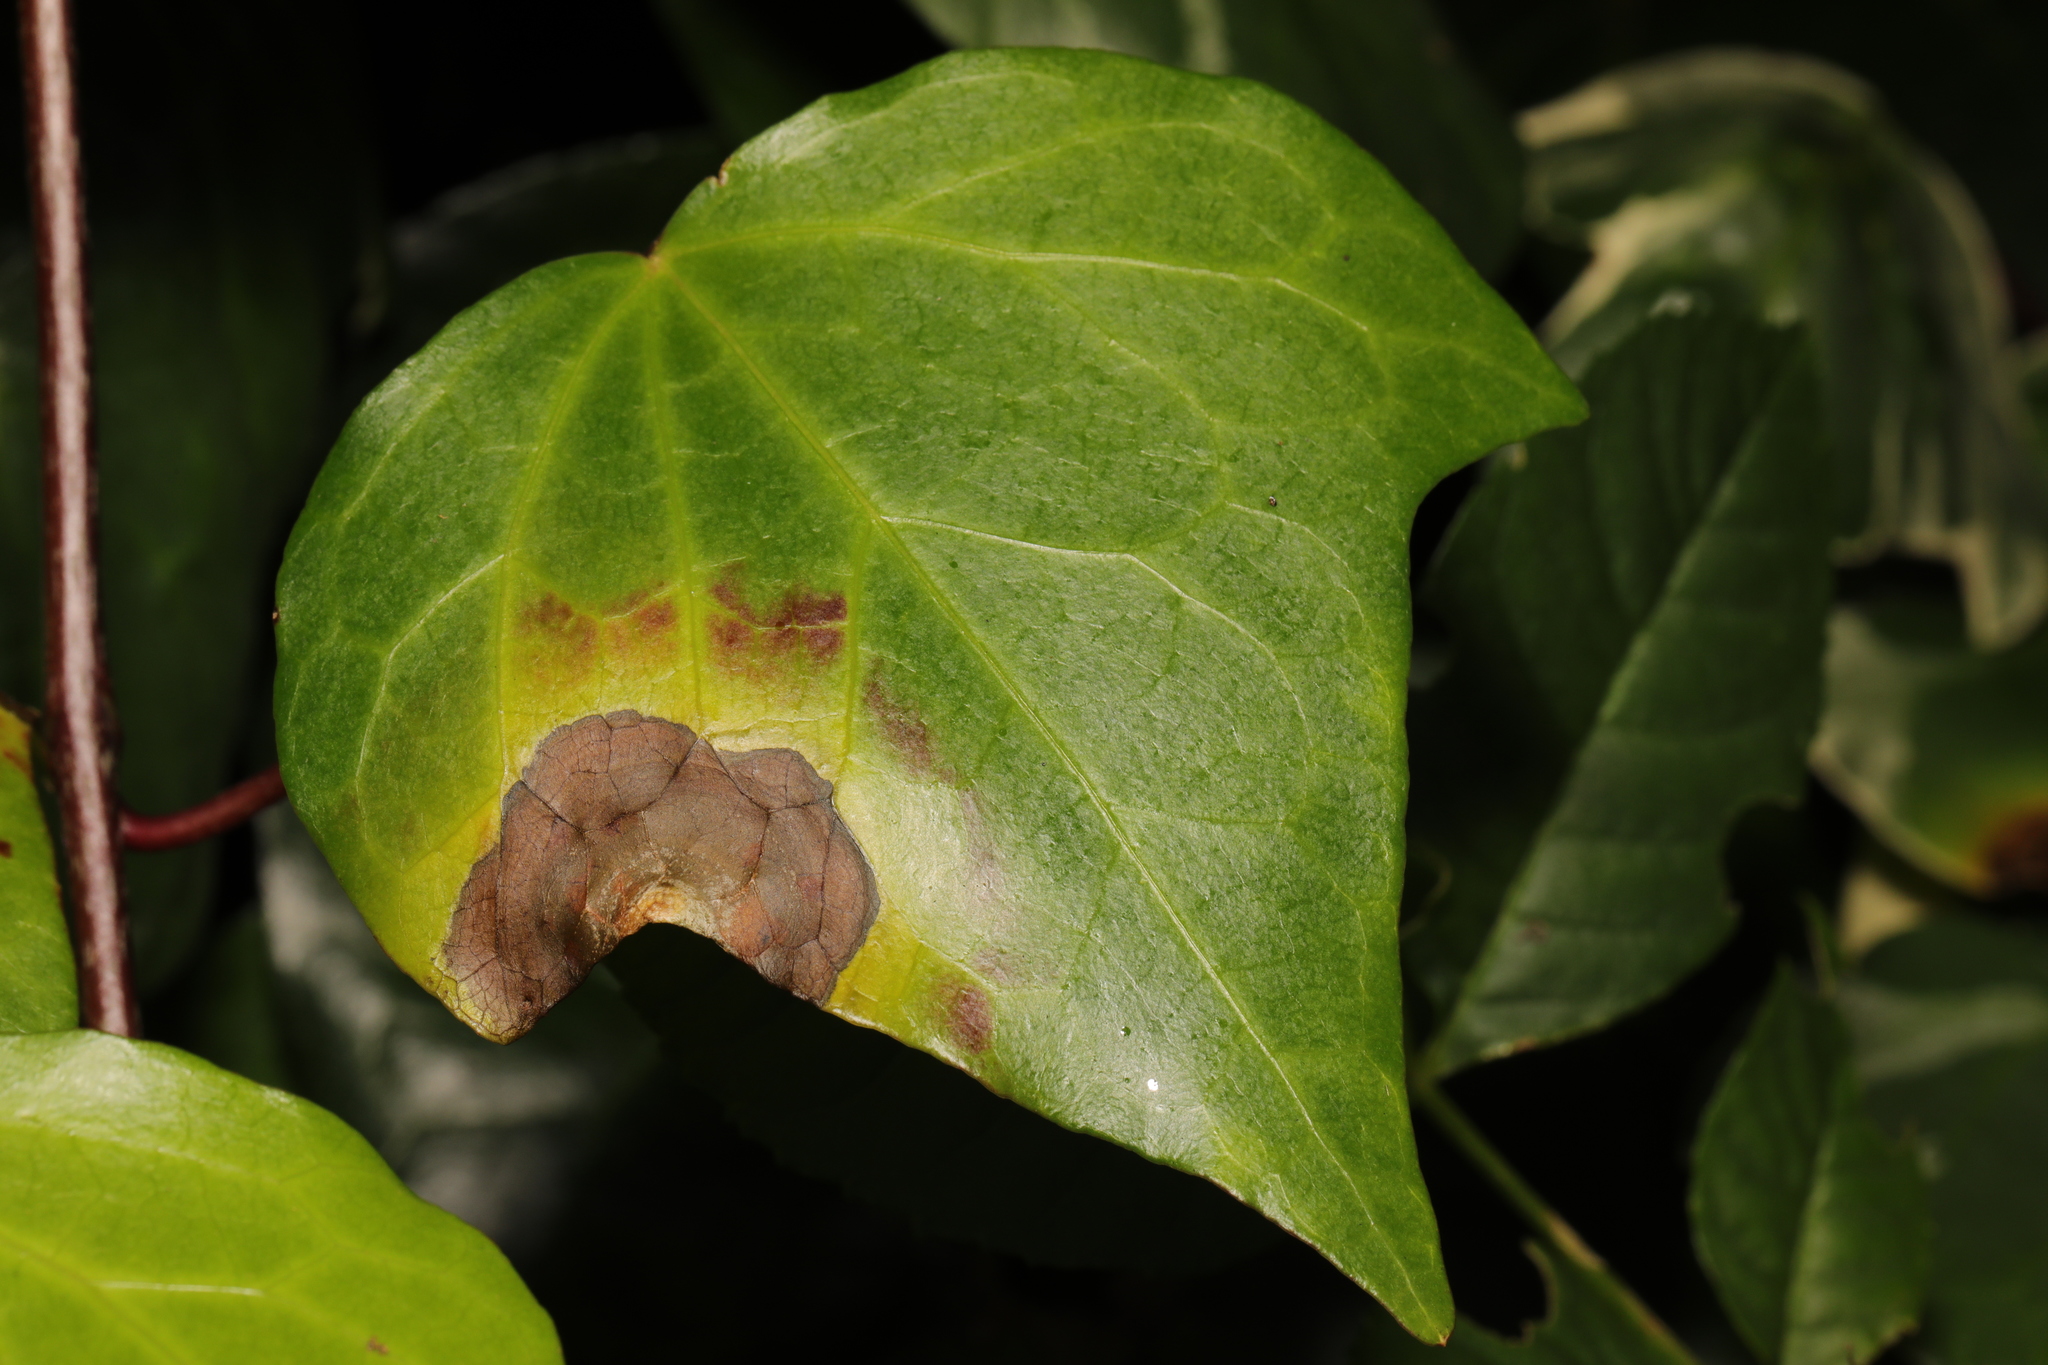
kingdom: Fungi
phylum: Ascomycota
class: Dothideomycetes
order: Pleosporales
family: Didymellaceae
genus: Boeremia
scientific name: Boeremia hedericola
